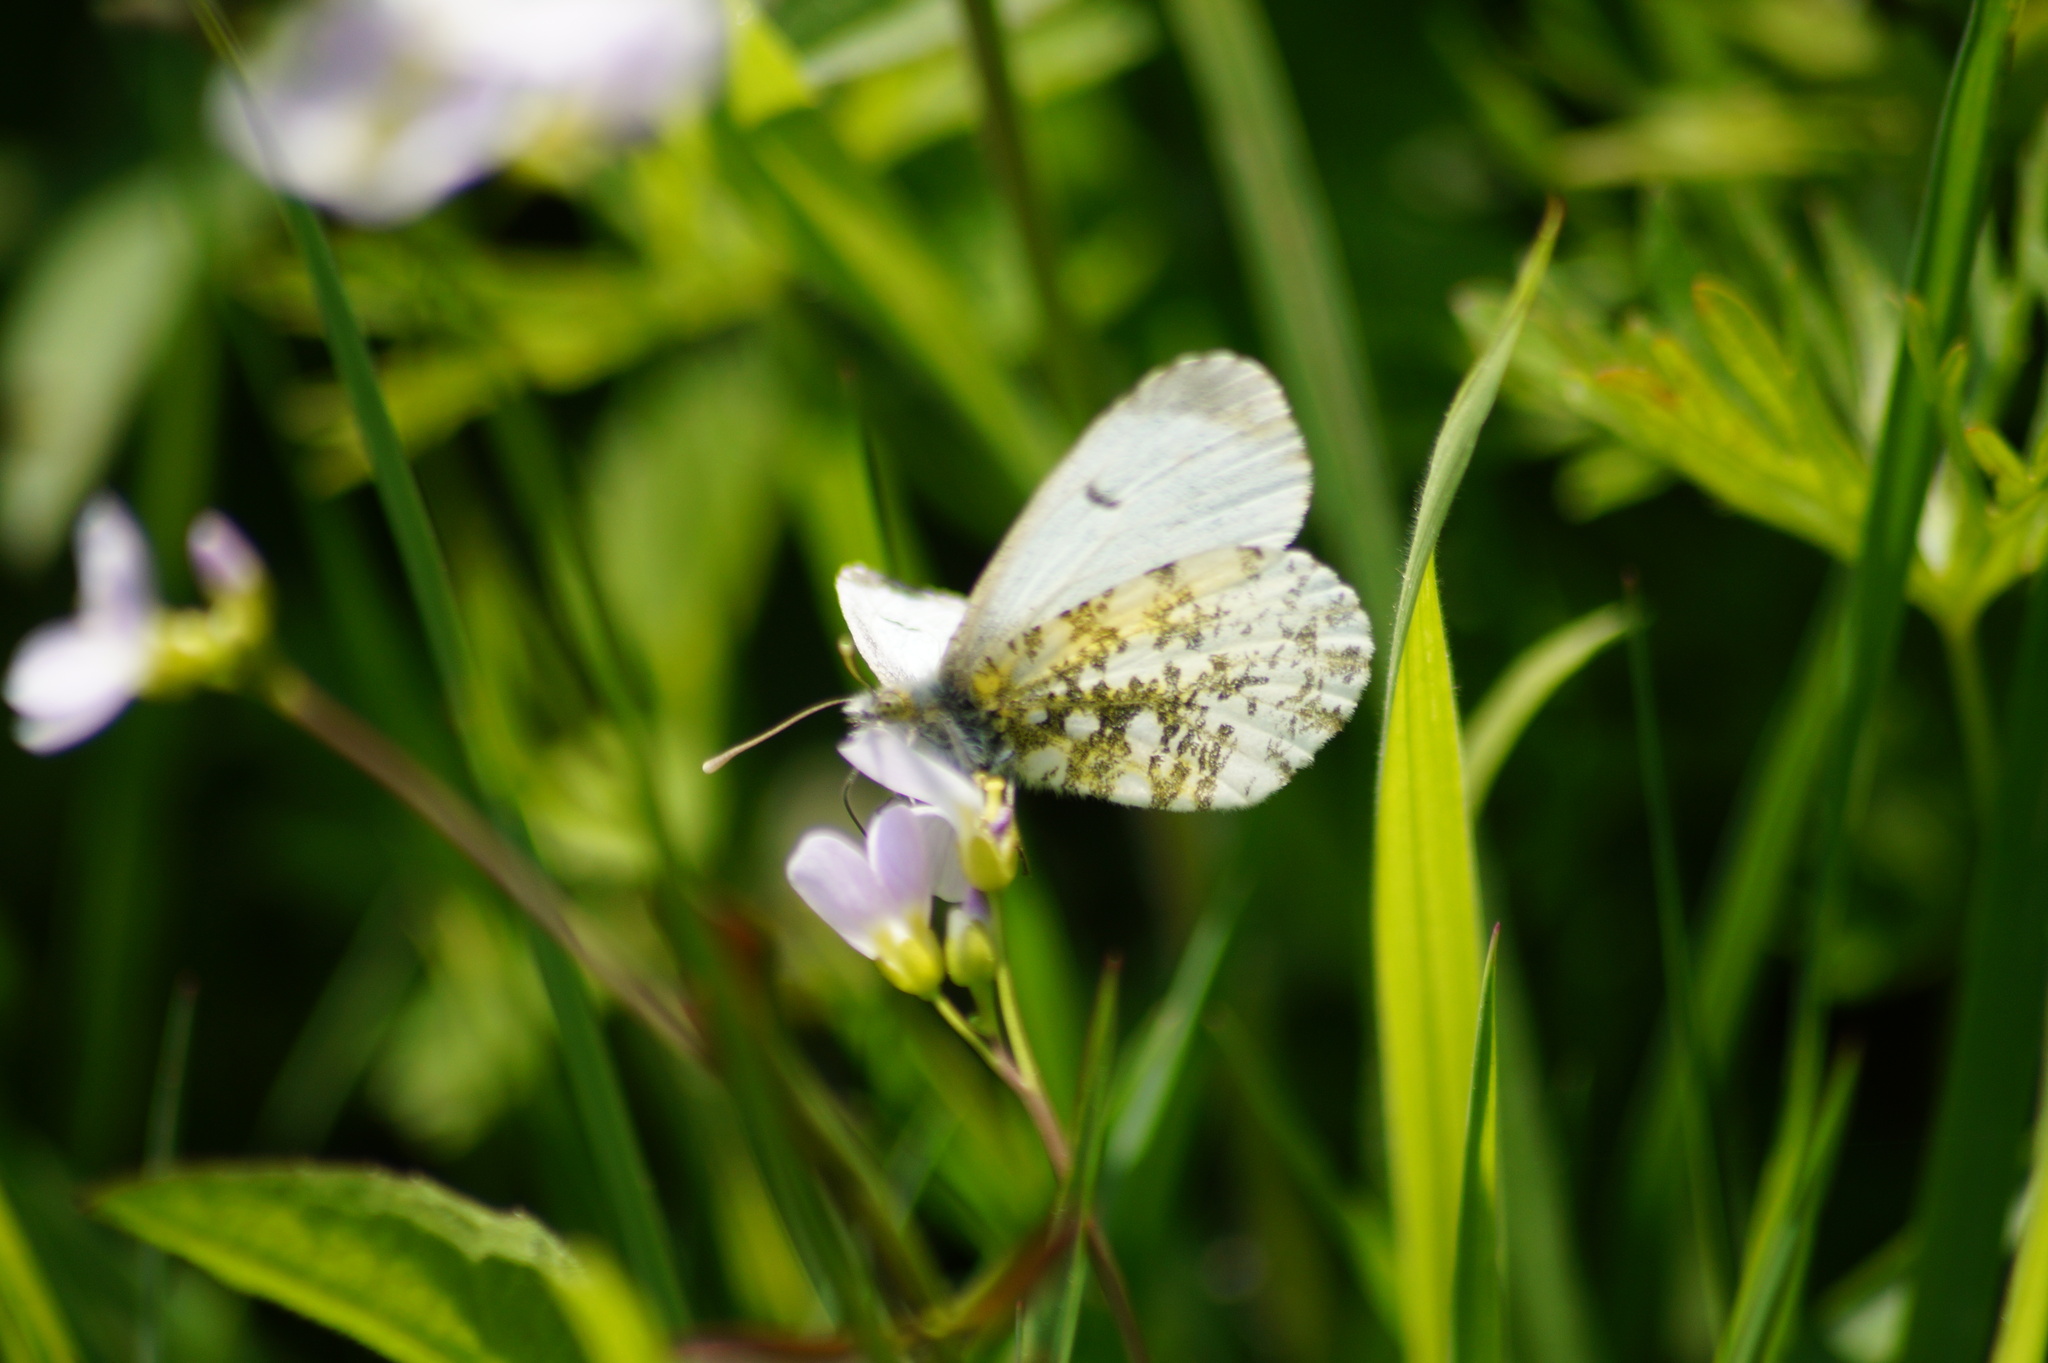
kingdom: Animalia
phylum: Arthropoda
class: Insecta
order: Lepidoptera
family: Pieridae
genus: Anthocharis
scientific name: Anthocharis cardamines
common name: Orange-tip
